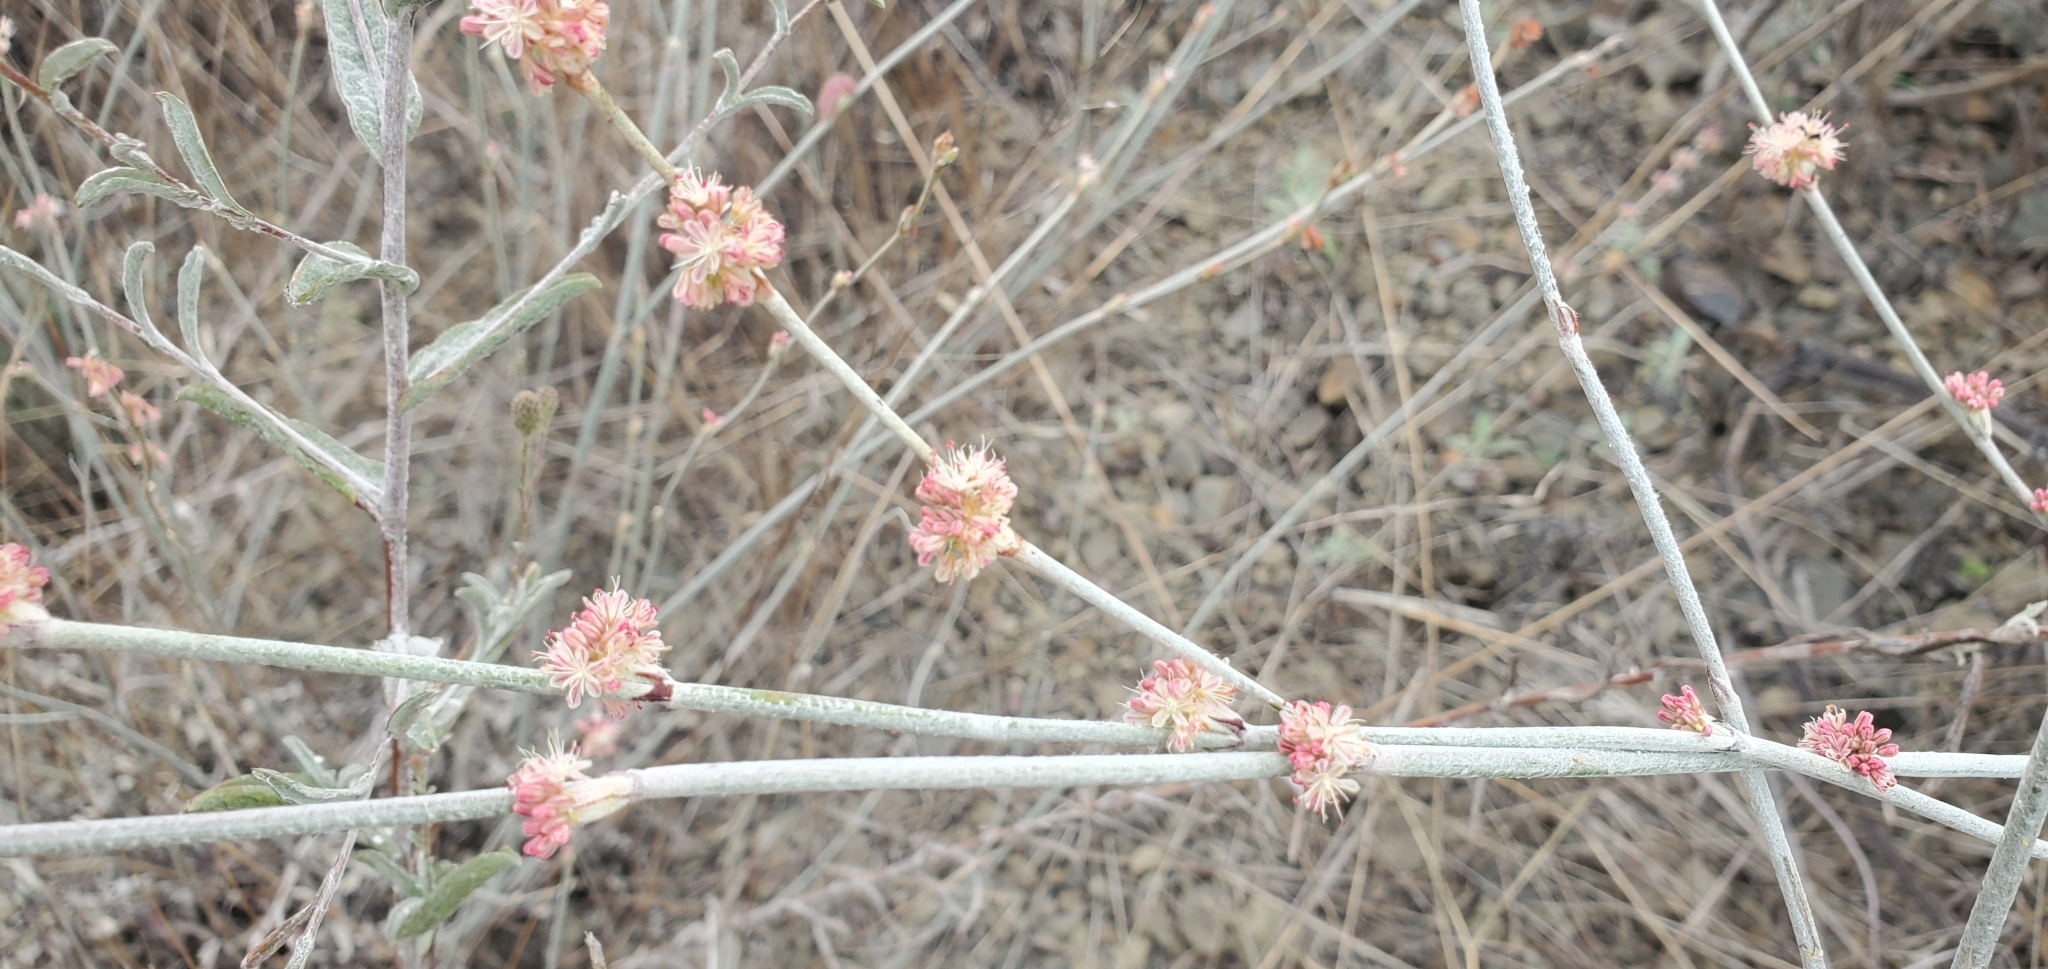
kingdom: Plantae
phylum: Tracheophyta
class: Magnoliopsida
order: Caryophyllales
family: Polygonaceae
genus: Eriogonum
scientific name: Eriogonum elongatum
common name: Long-stem wild buckwheat
